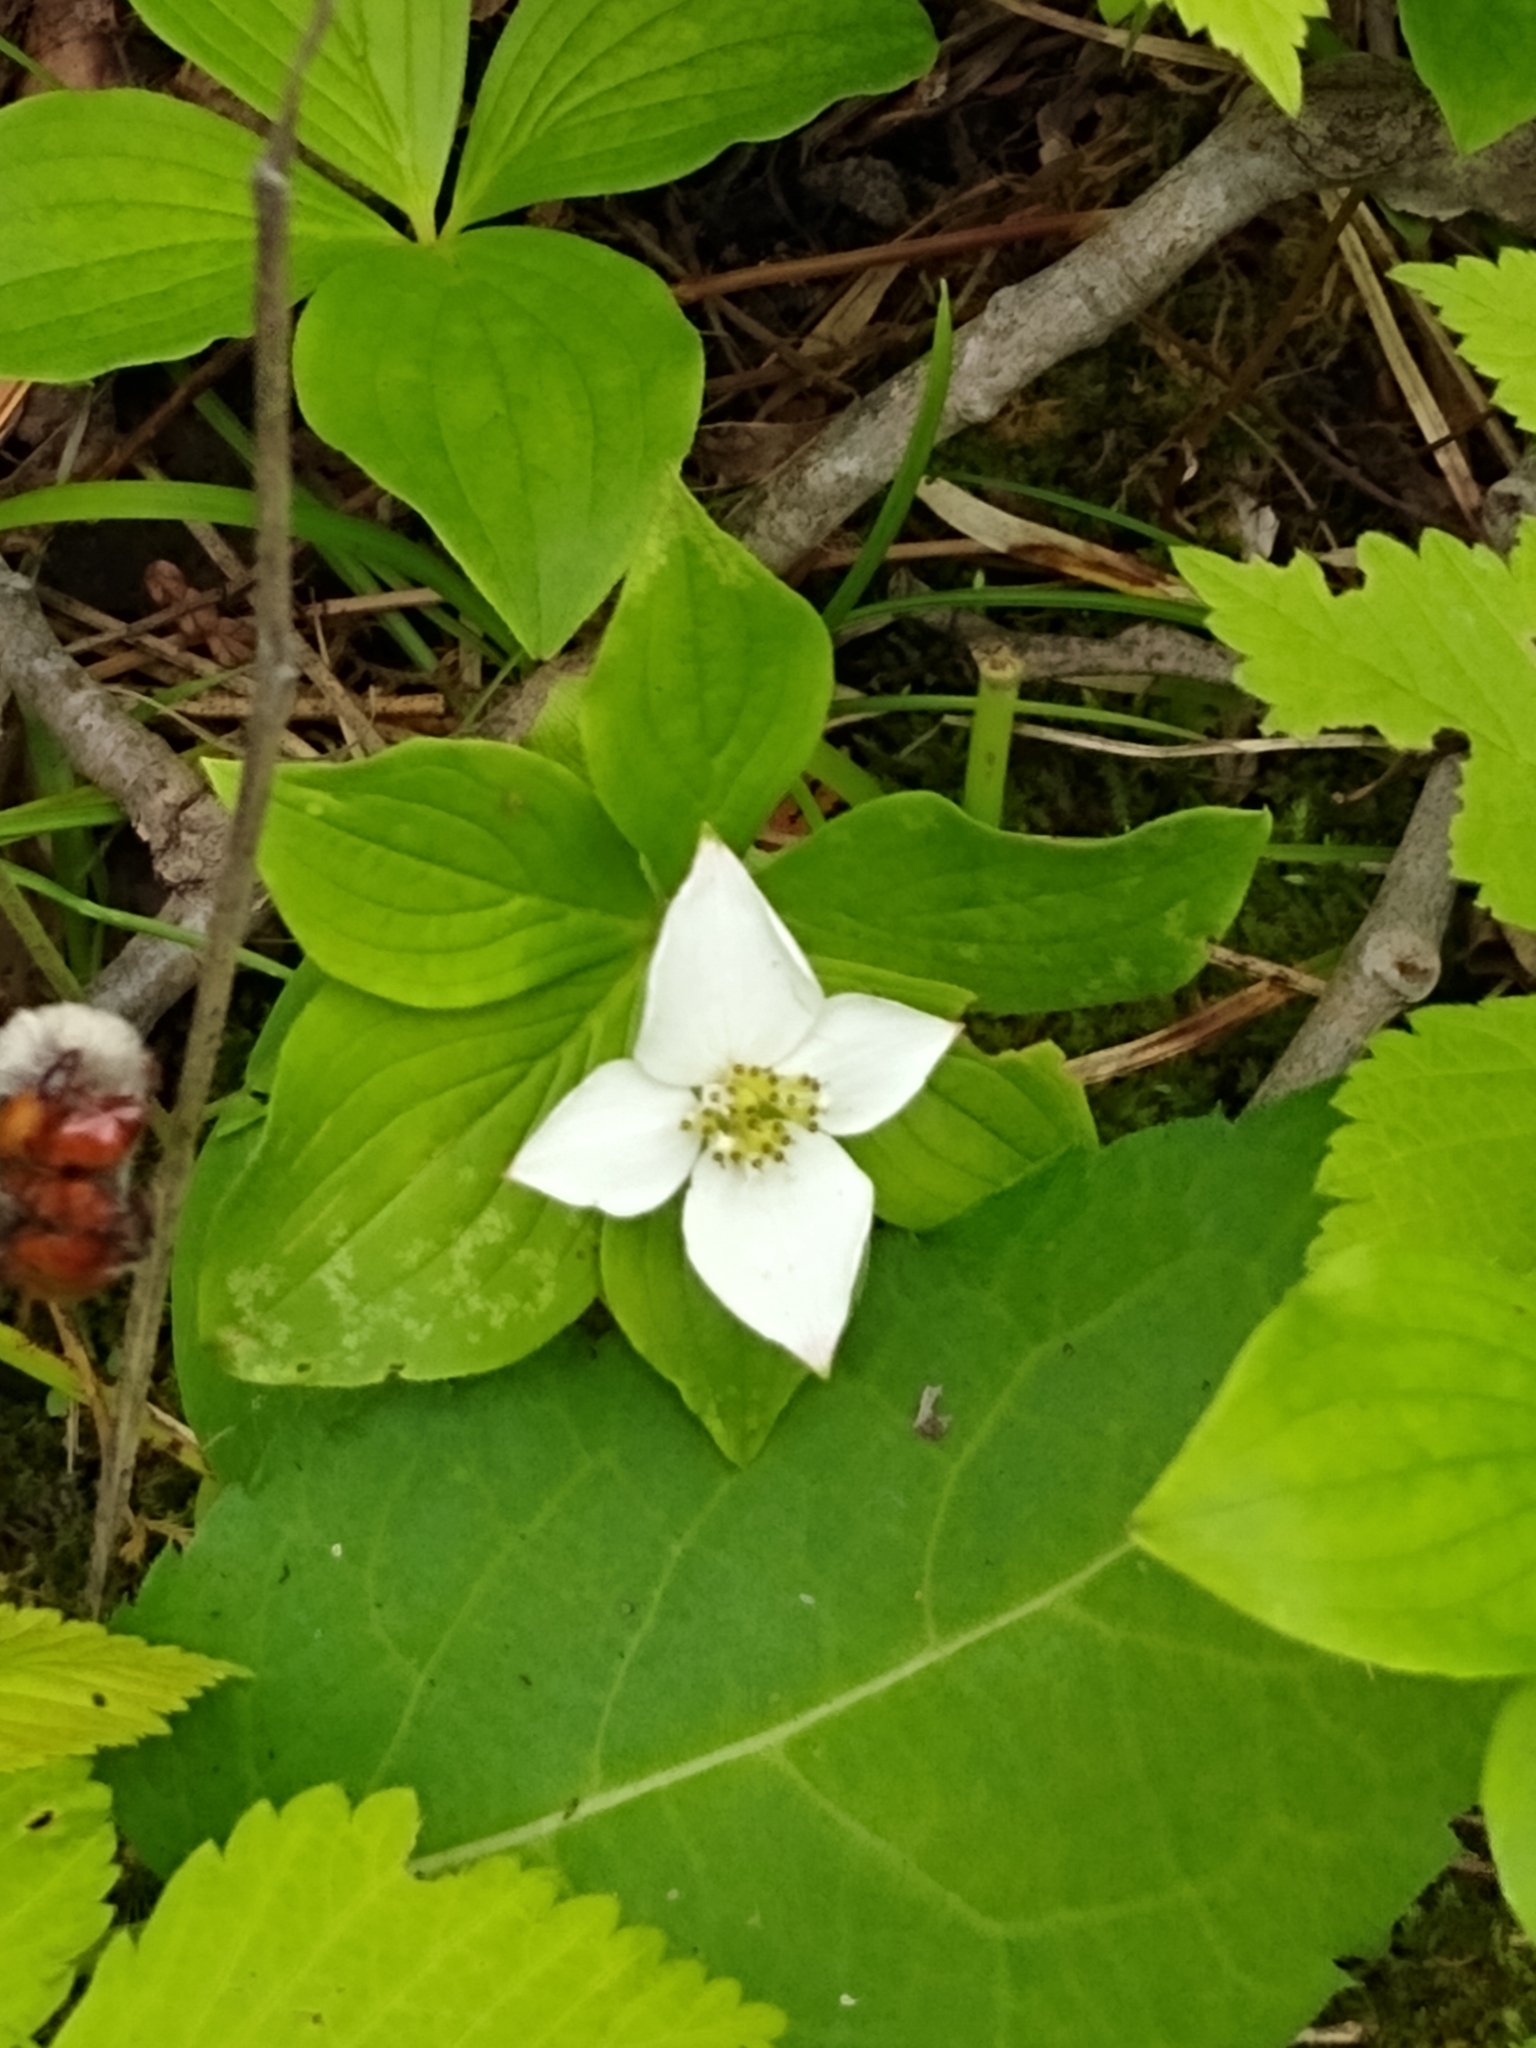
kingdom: Plantae
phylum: Tracheophyta
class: Magnoliopsida
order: Cornales
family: Cornaceae
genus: Cornus
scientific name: Cornus canadensis
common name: Creeping dogwood
